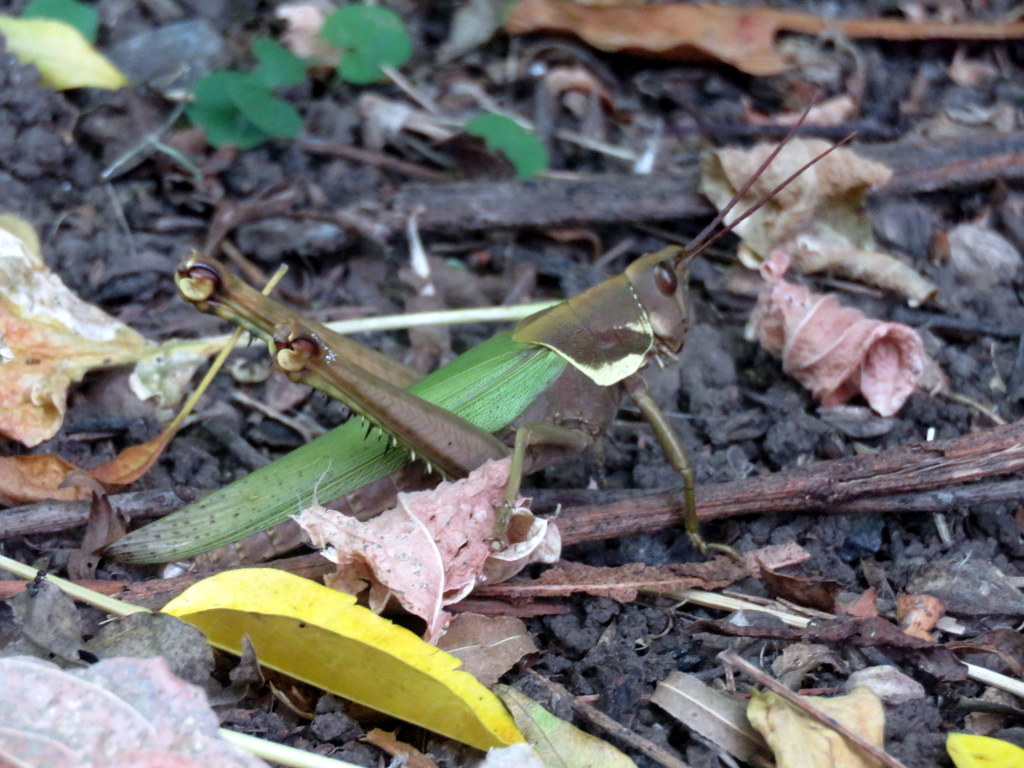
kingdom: Animalia
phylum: Arthropoda
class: Insecta
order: Orthoptera
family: Romaleidae
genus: Coryacris
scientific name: Coryacris angustipennis
